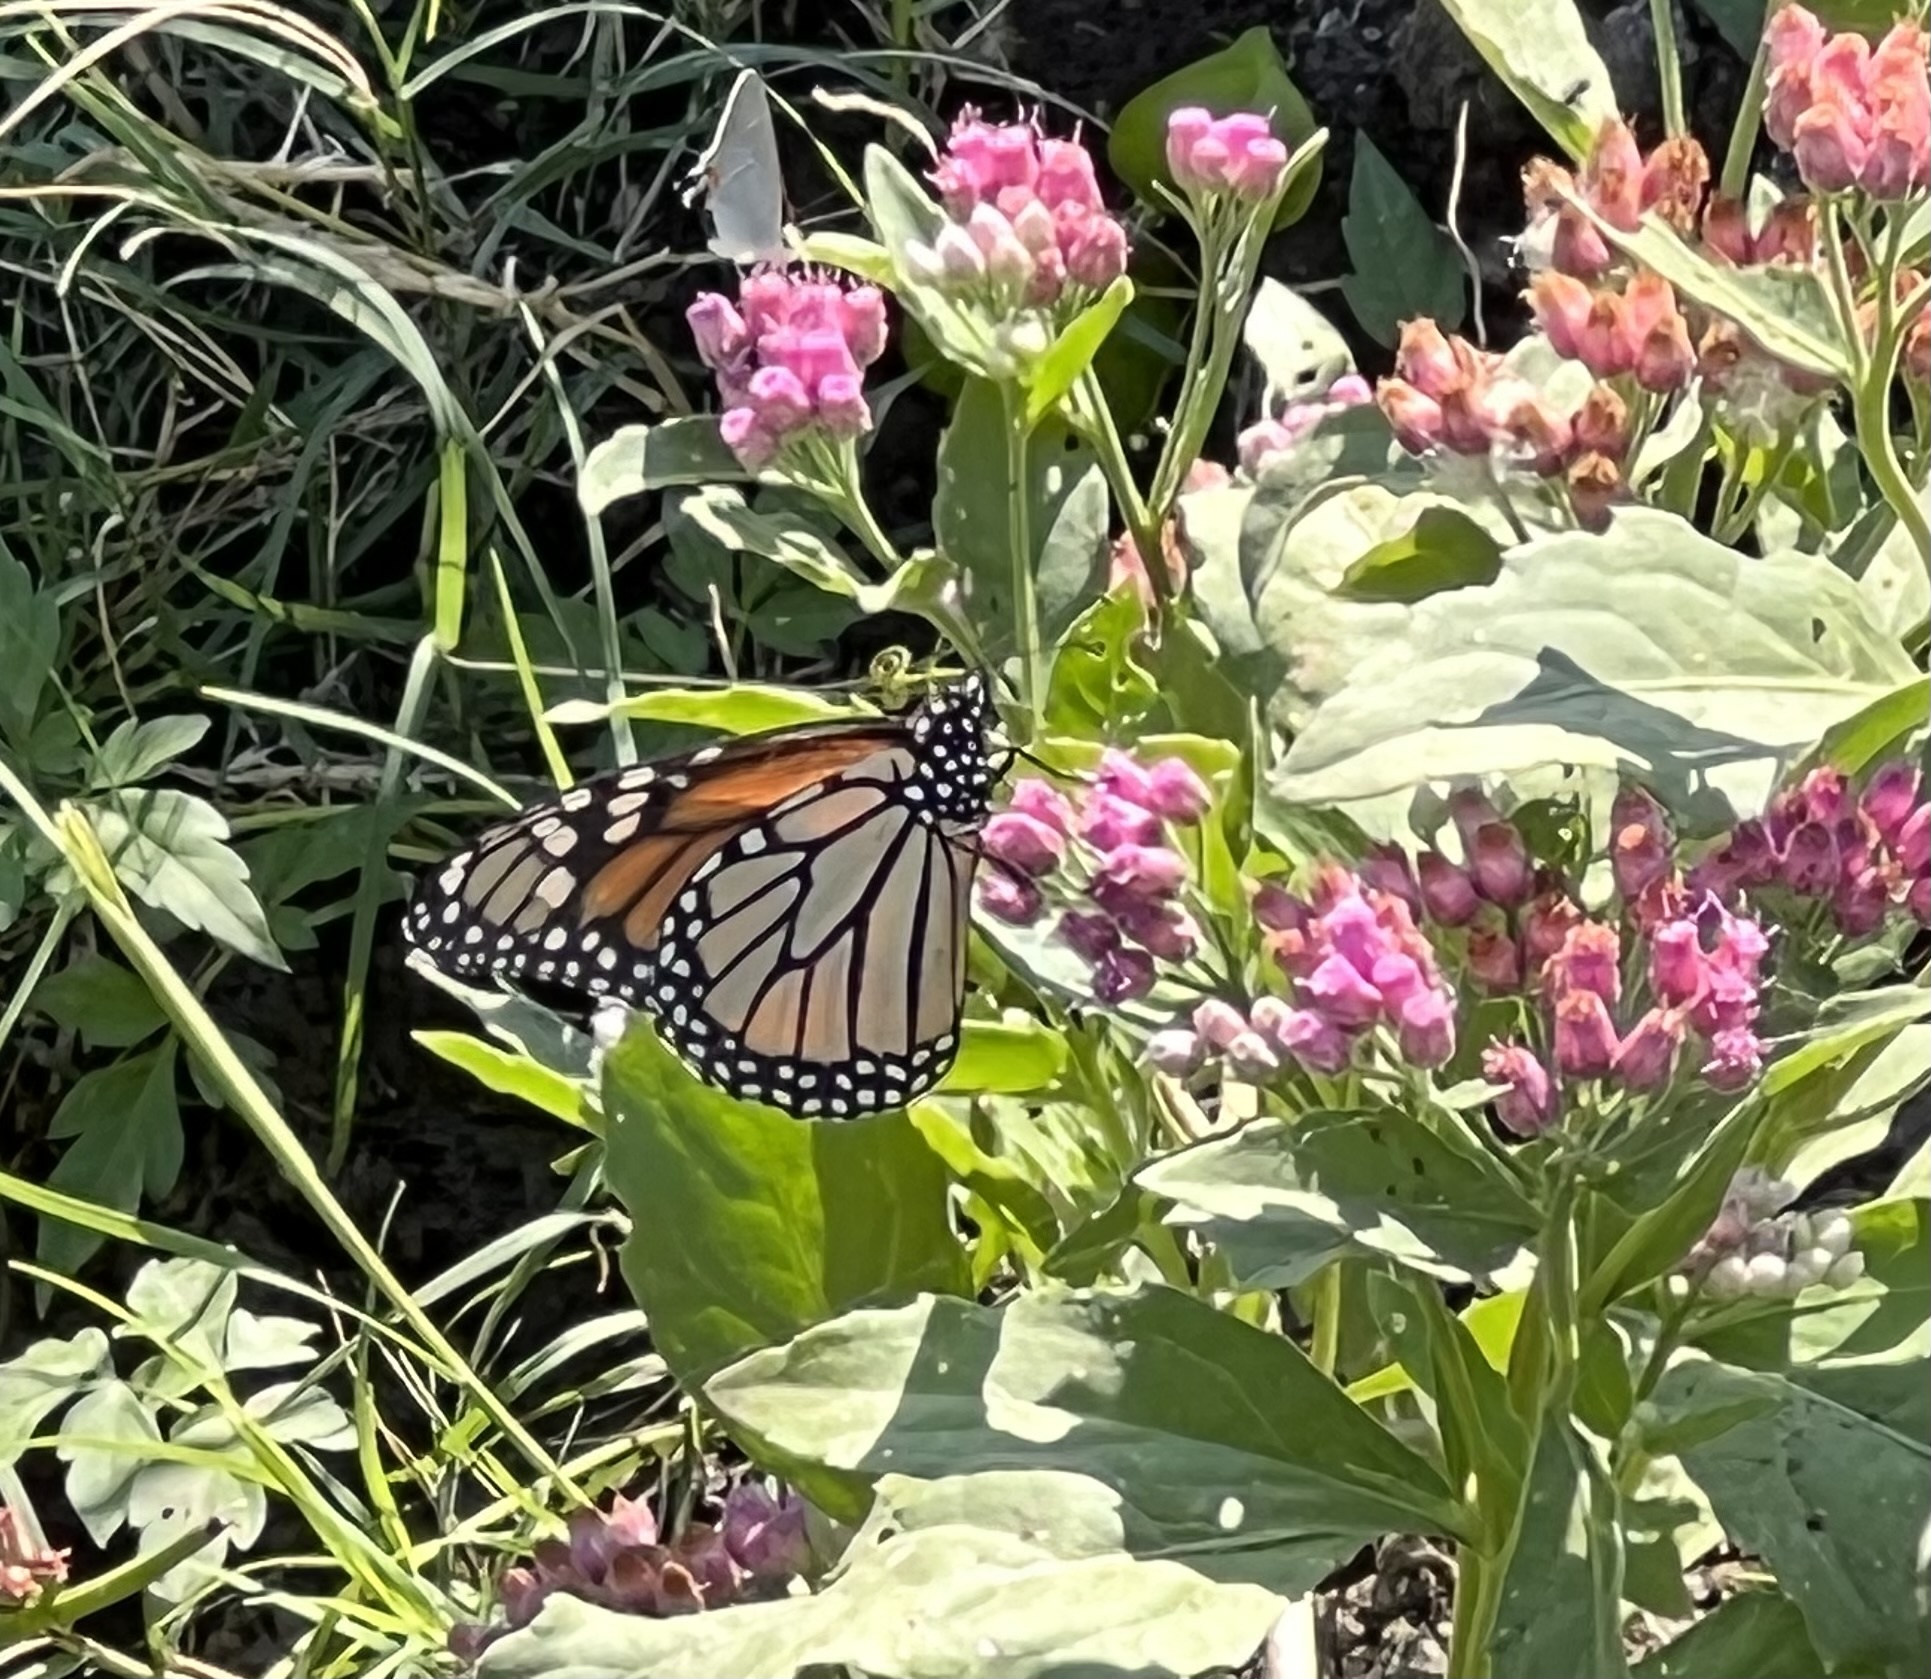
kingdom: Animalia
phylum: Arthropoda
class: Insecta
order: Lepidoptera
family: Nymphalidae
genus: Danaus
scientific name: Danaus plexippus
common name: Monarch
